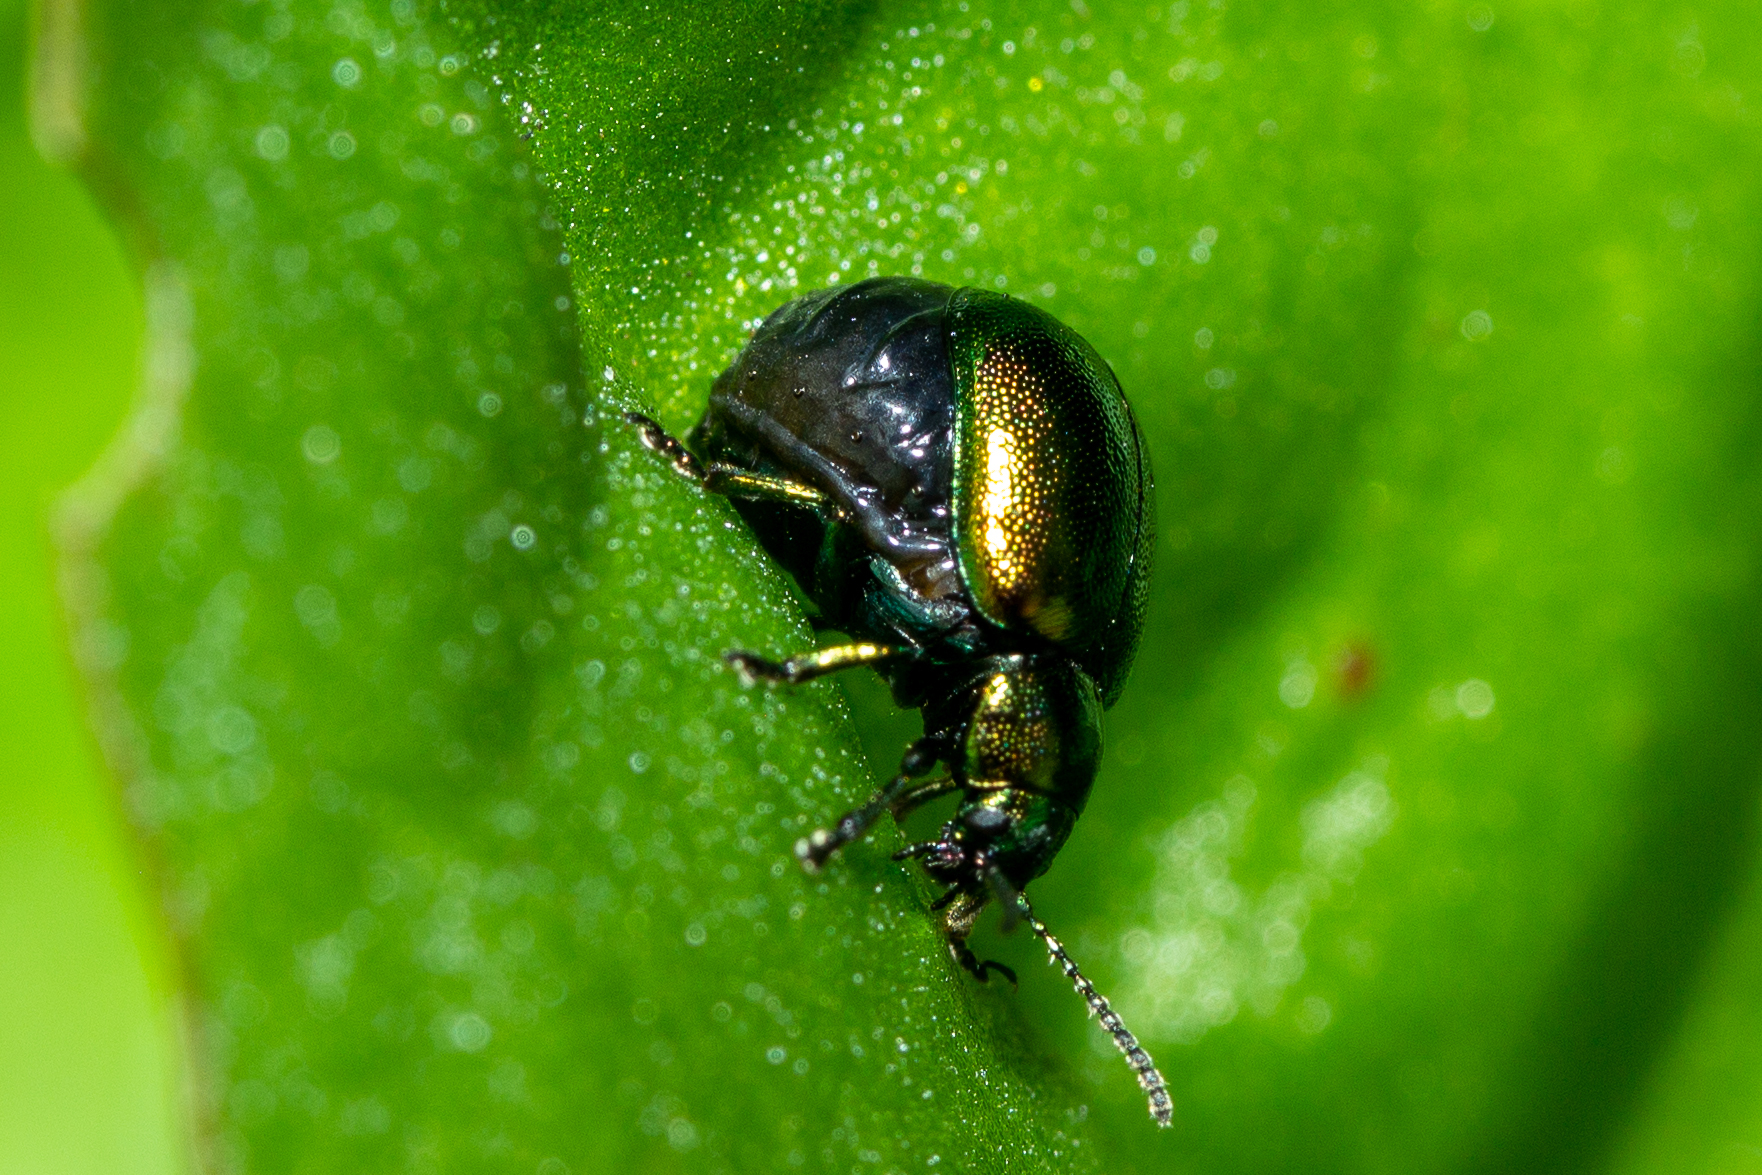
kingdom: Animalia
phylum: Arthropoda
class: Insecta
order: Coleoptera
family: Chrysomelidae
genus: Gastrophysa
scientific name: Gastrophysa viridula
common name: Green dock beetle
